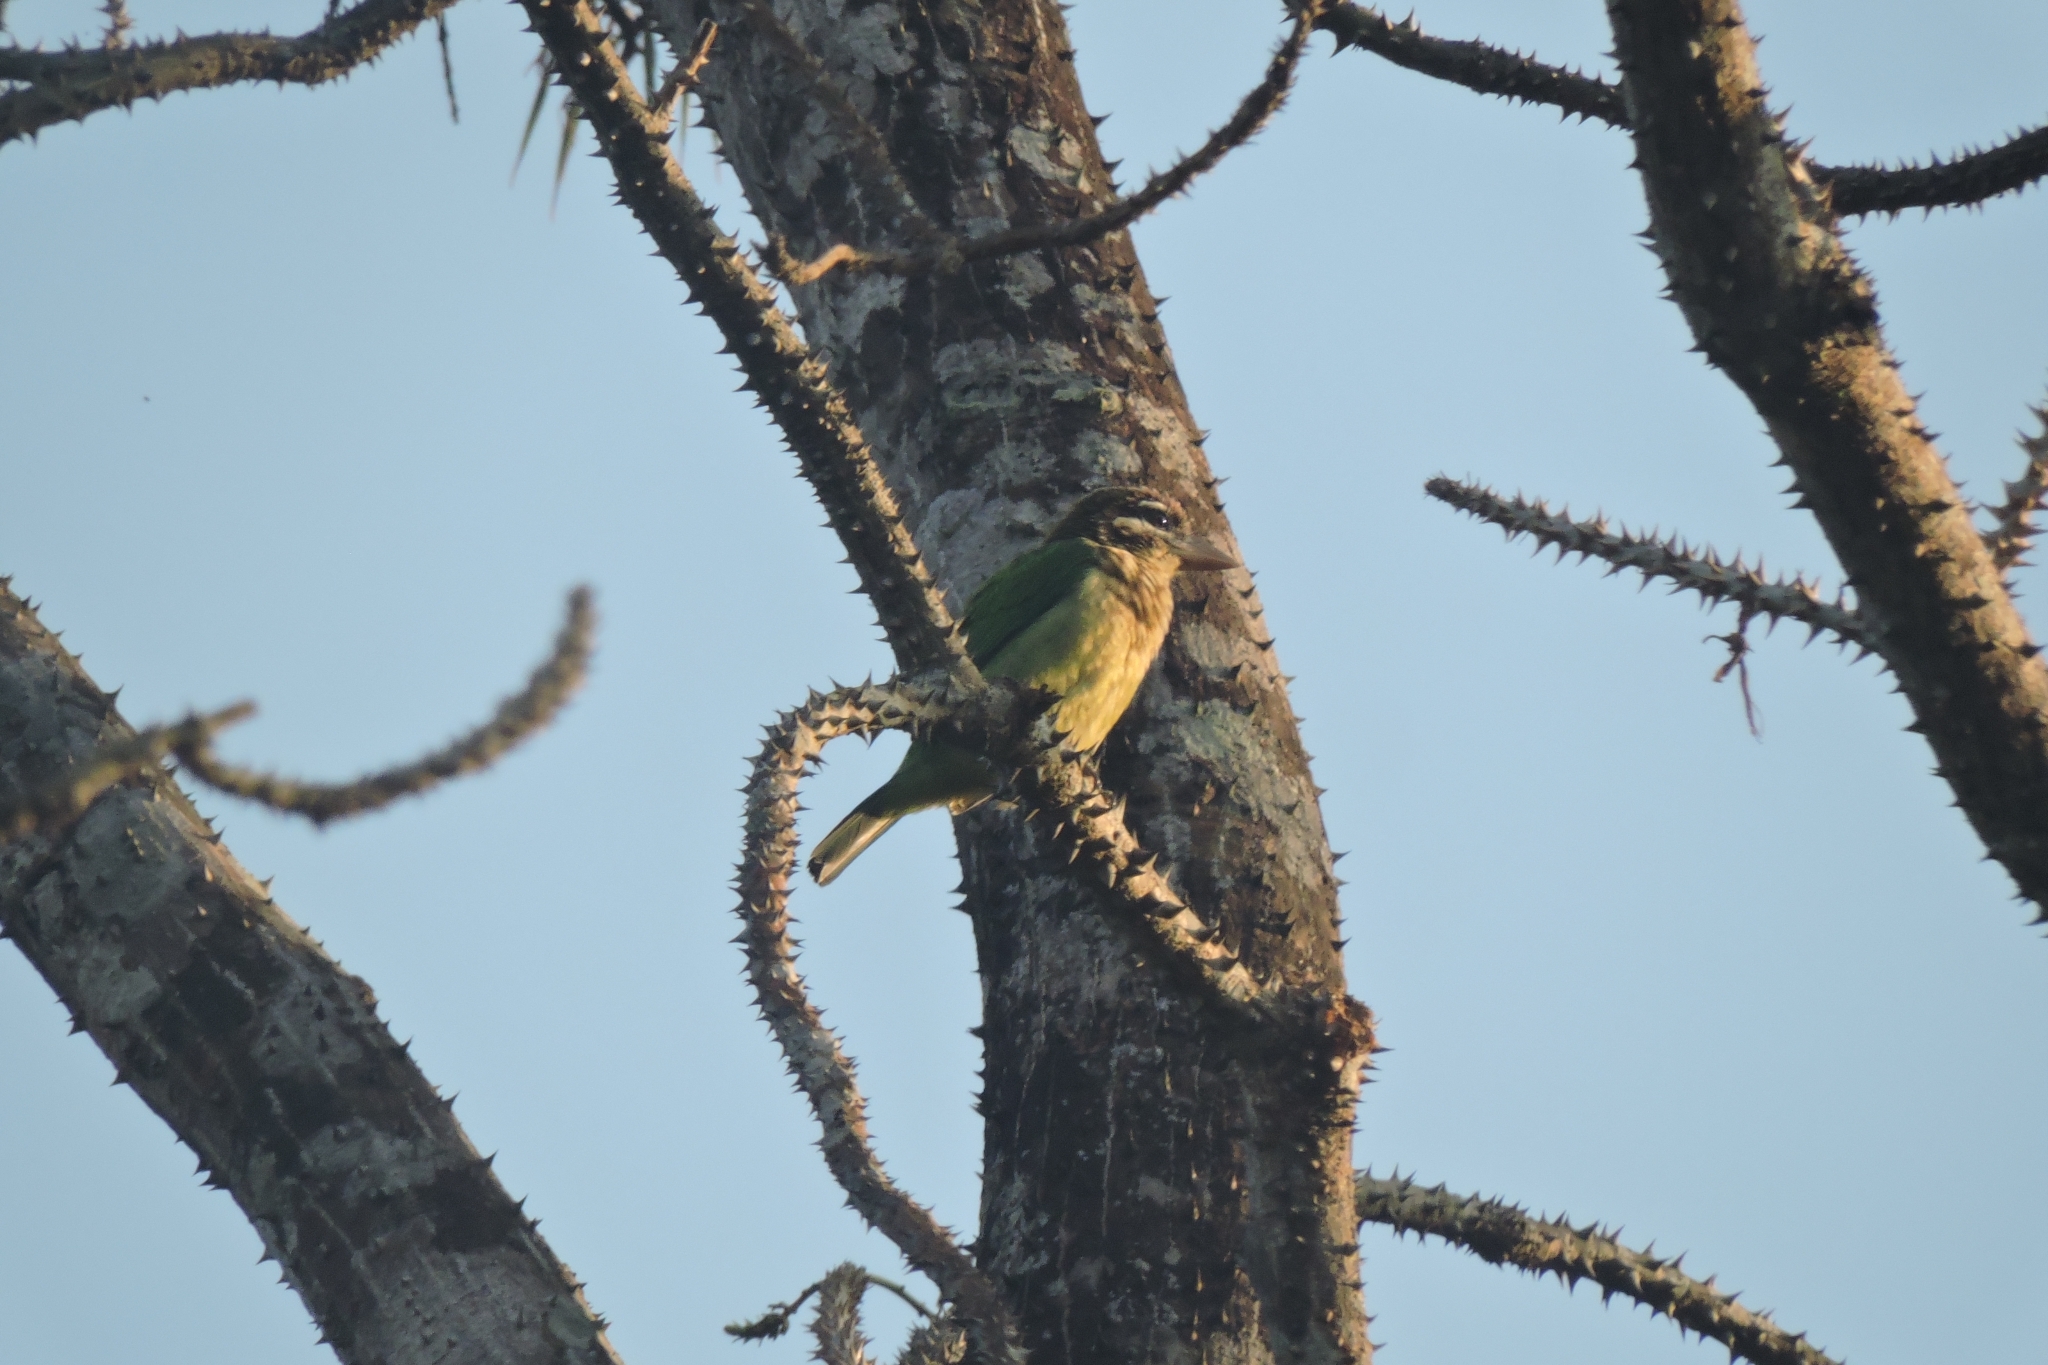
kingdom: Animalia
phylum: Chordata
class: Aves
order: Piciformes
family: Megalaimidae
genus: Psilopogon
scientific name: Psilopogon viridis
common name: White-cheeked barbet
